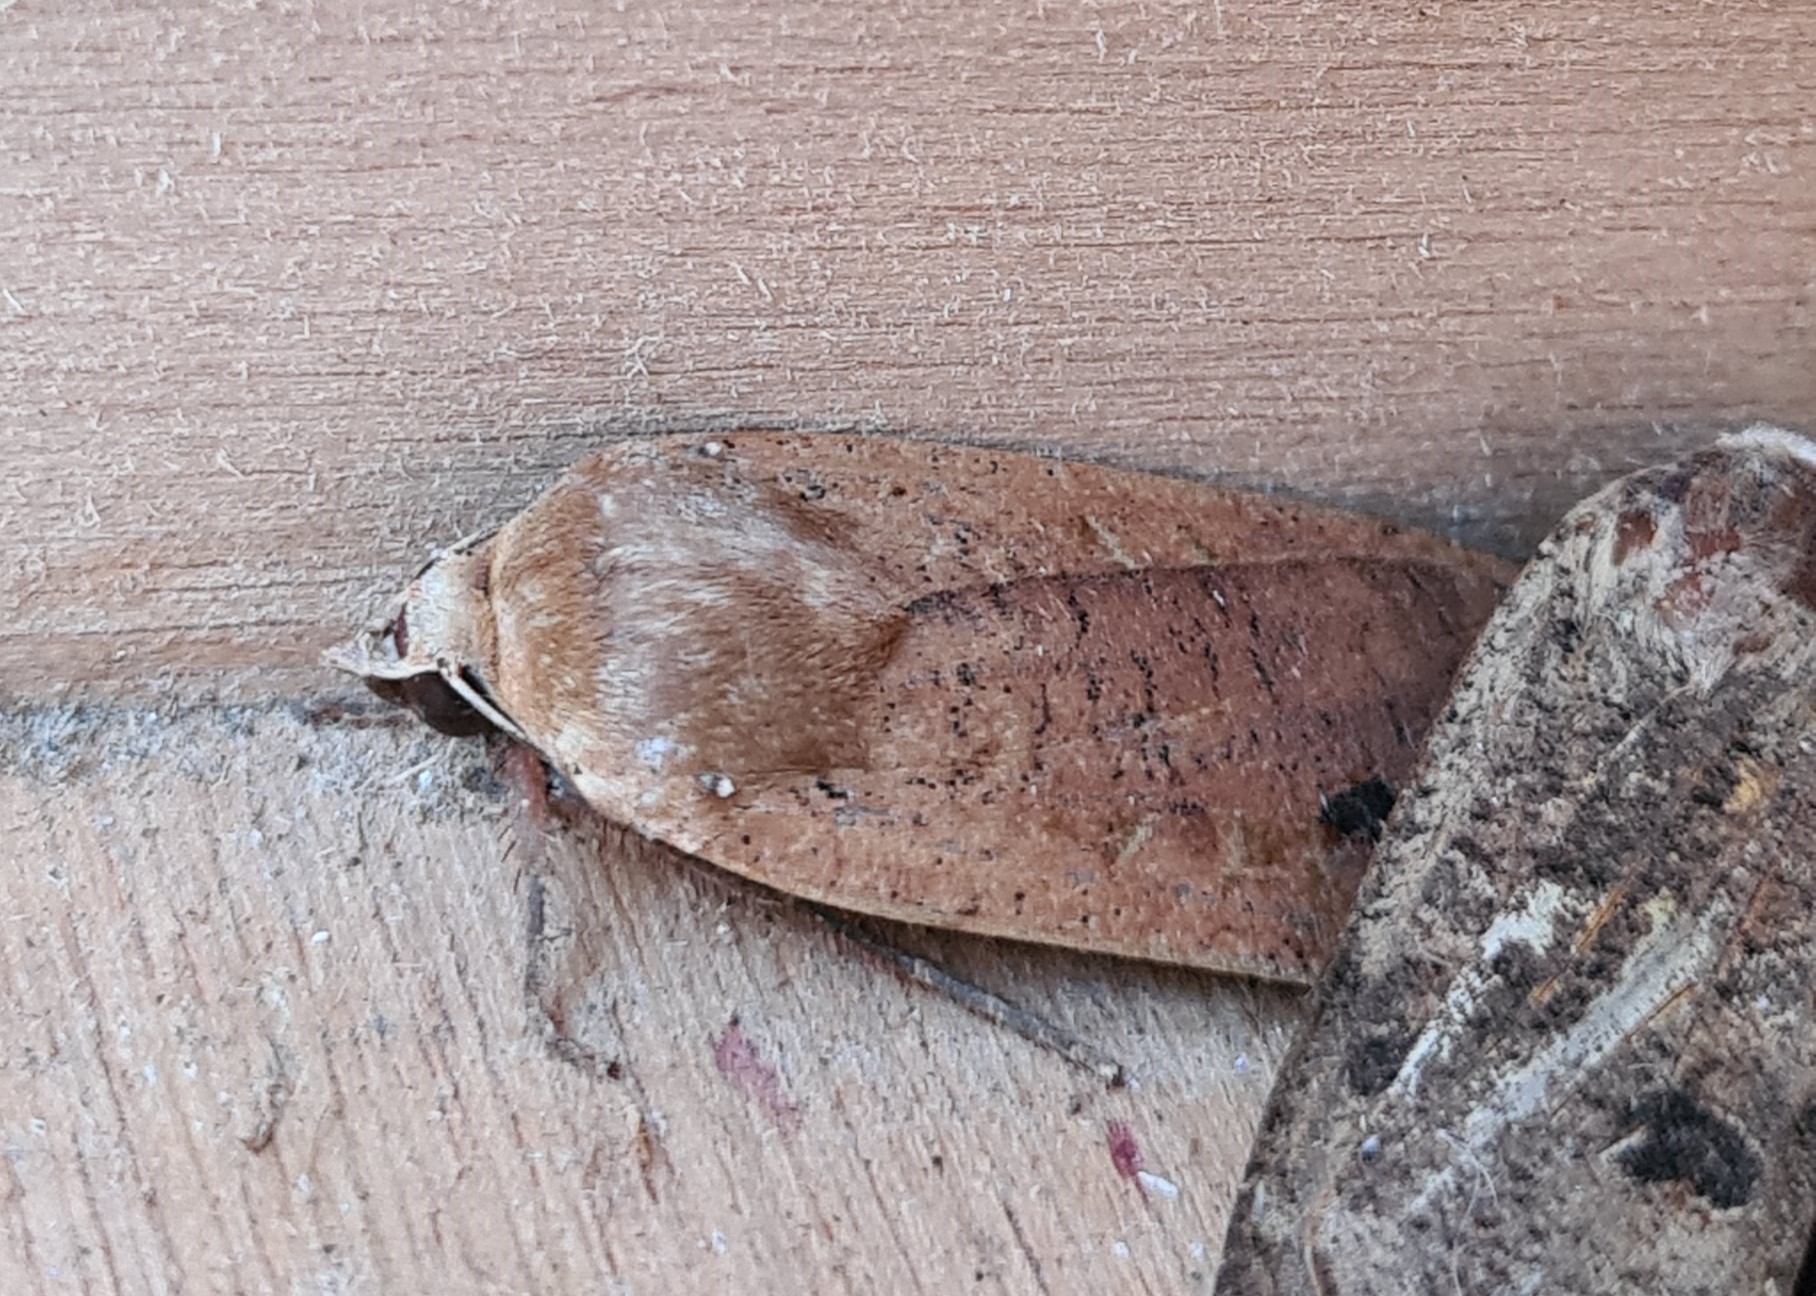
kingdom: Animalia
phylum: Arthropoda
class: Insecta
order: Lepidoptera
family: Noctuidae
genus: Noctua
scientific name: Noctua pronuba
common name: Large yellow underwing
